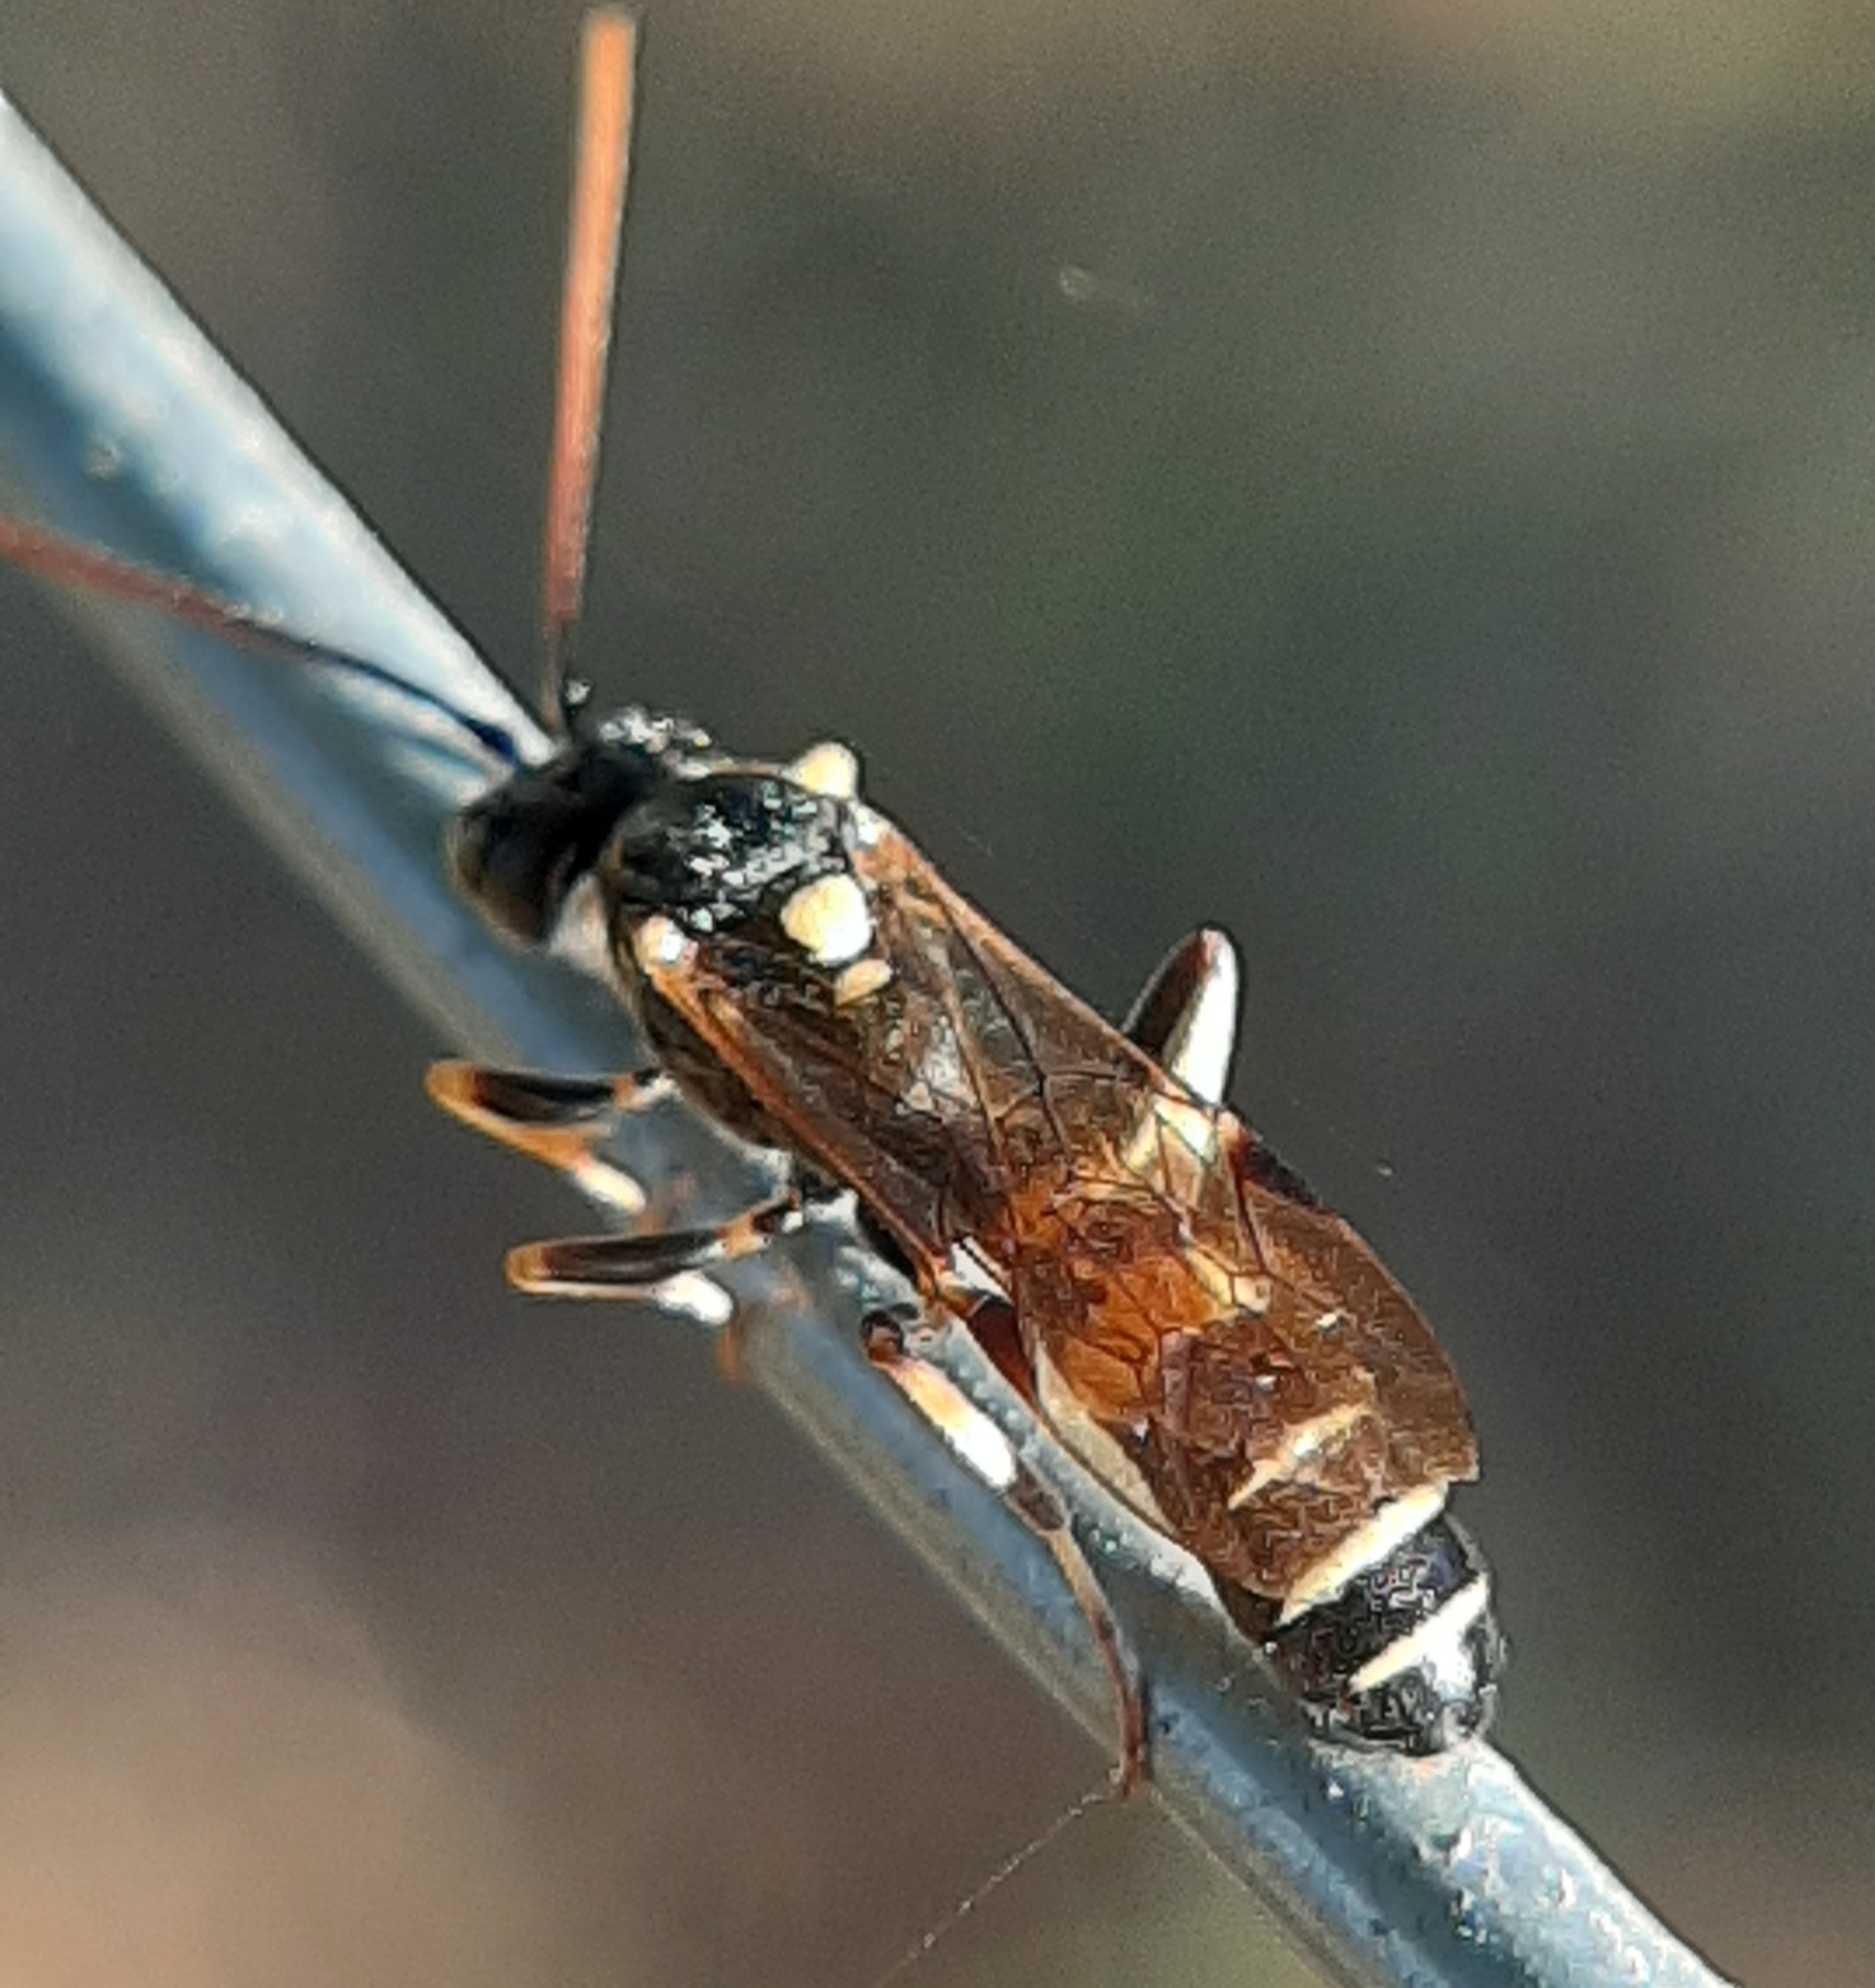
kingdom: Animalia
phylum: Arthropoda
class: Insecta
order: Hymenoptera
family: Ichneumonidae
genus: Exenterus
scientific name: Exenterus amictorius
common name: Ichneumonid wasp
